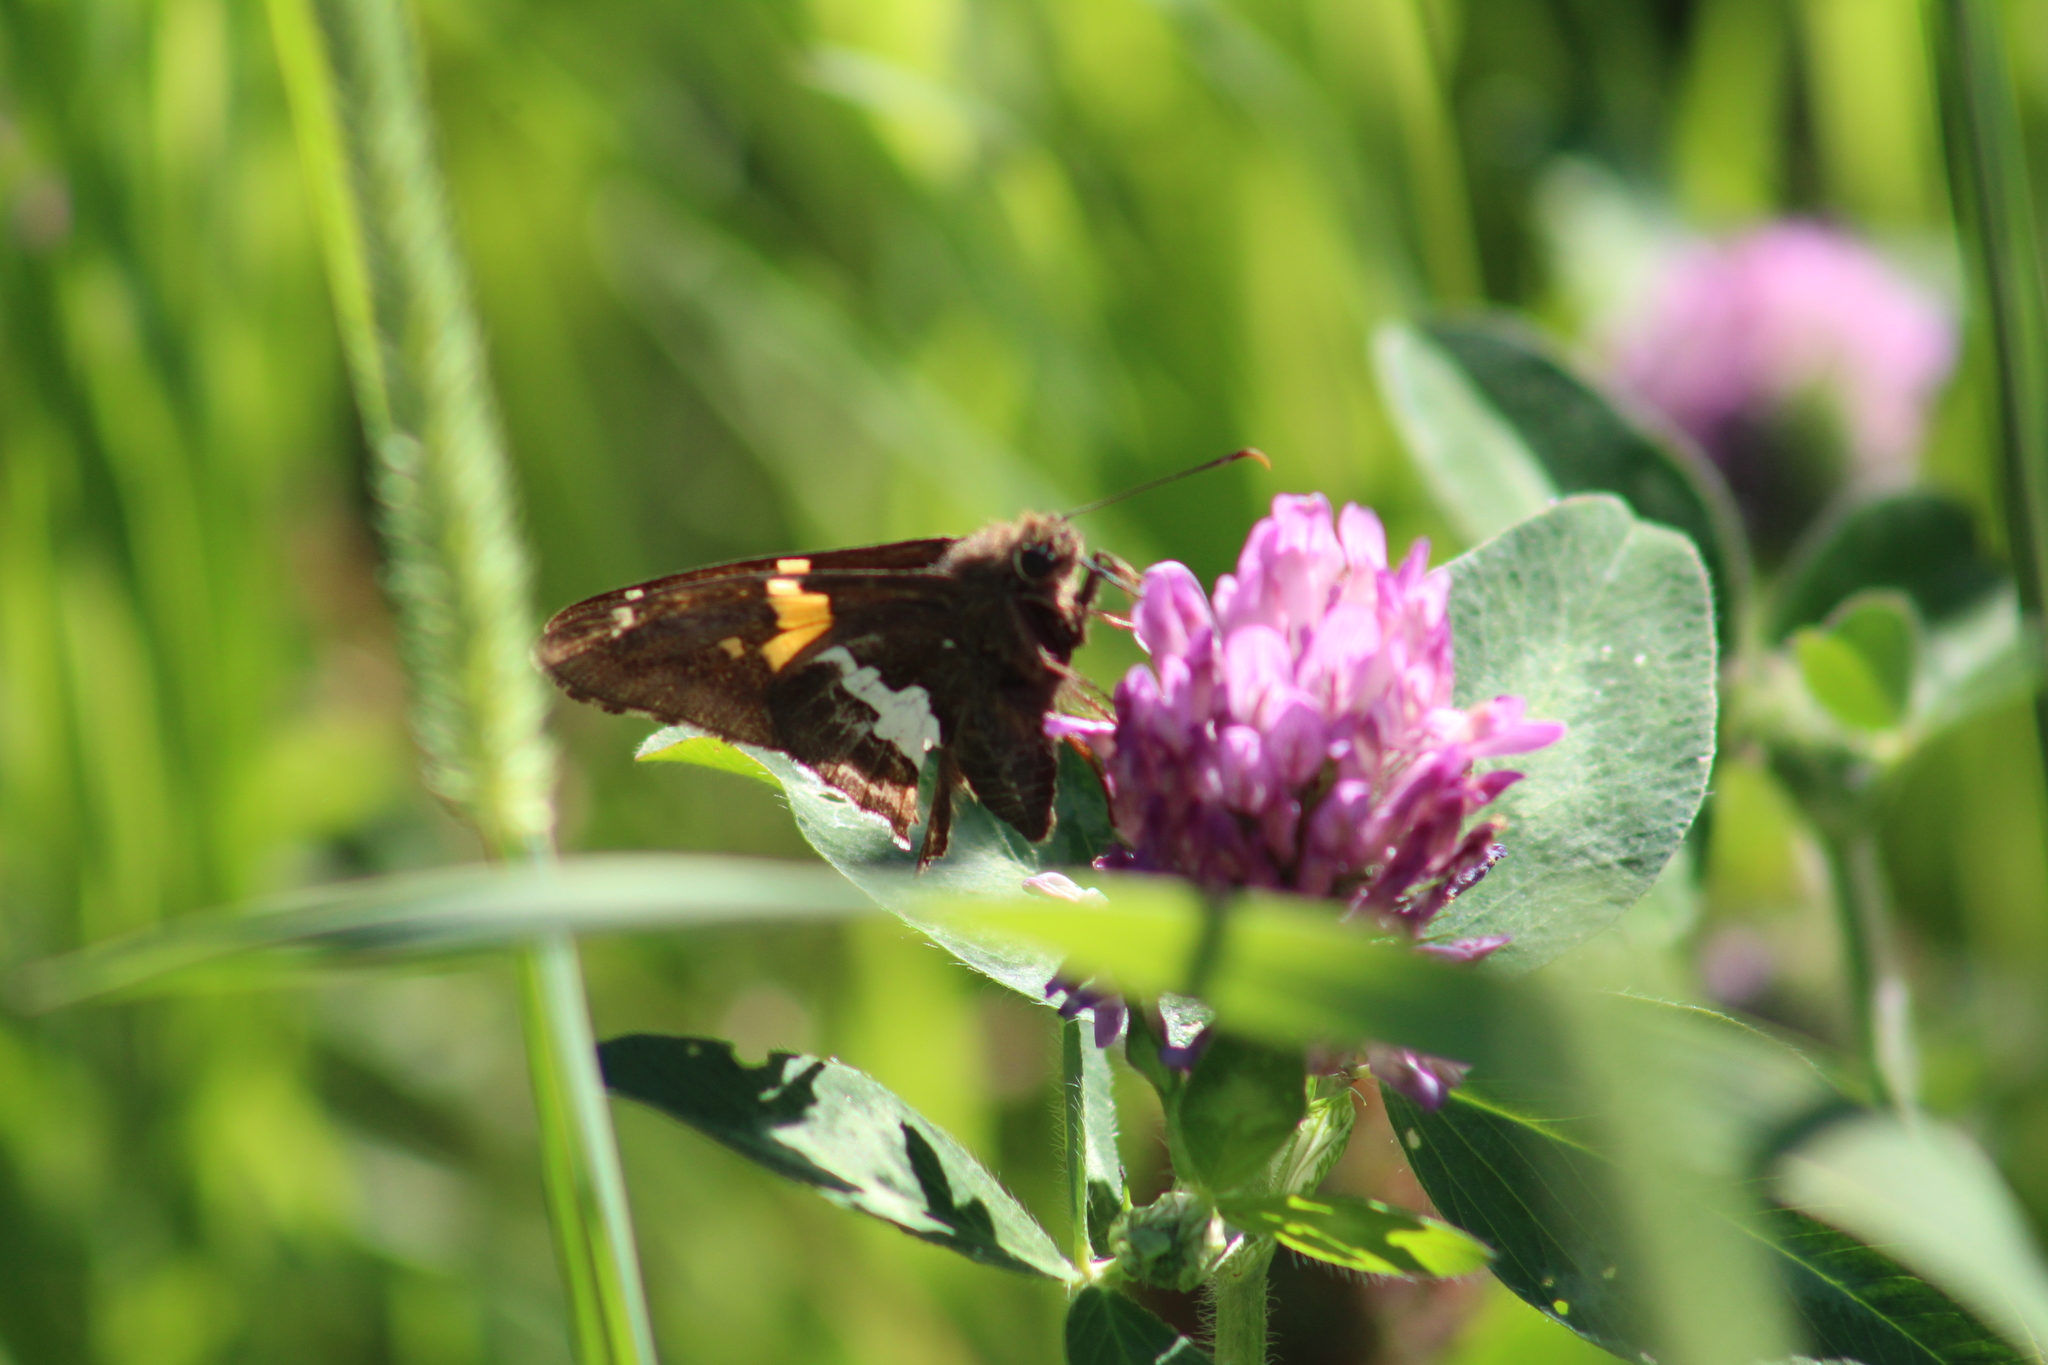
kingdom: Animalia
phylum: Arthropoda
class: Insecta
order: Lepidoptera
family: Hesperiidae
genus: Epargyreus
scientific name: Epargyreus clarus
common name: Silver-spotted skipper
